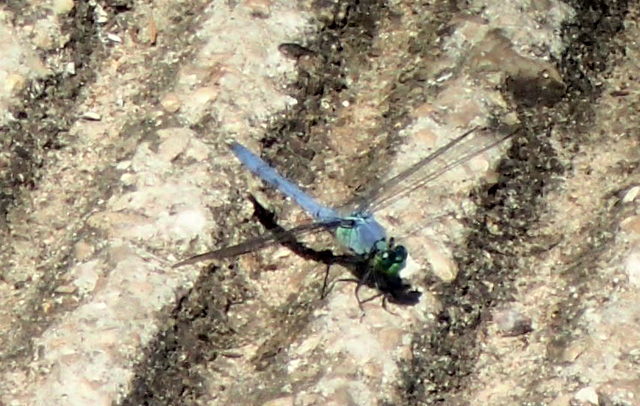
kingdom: Animalia
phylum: Arthropoda
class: Insecta
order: Odonata
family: Libellulidae
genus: Erythemis
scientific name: Erythemis simplicicollis
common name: Eastern pondhawk
